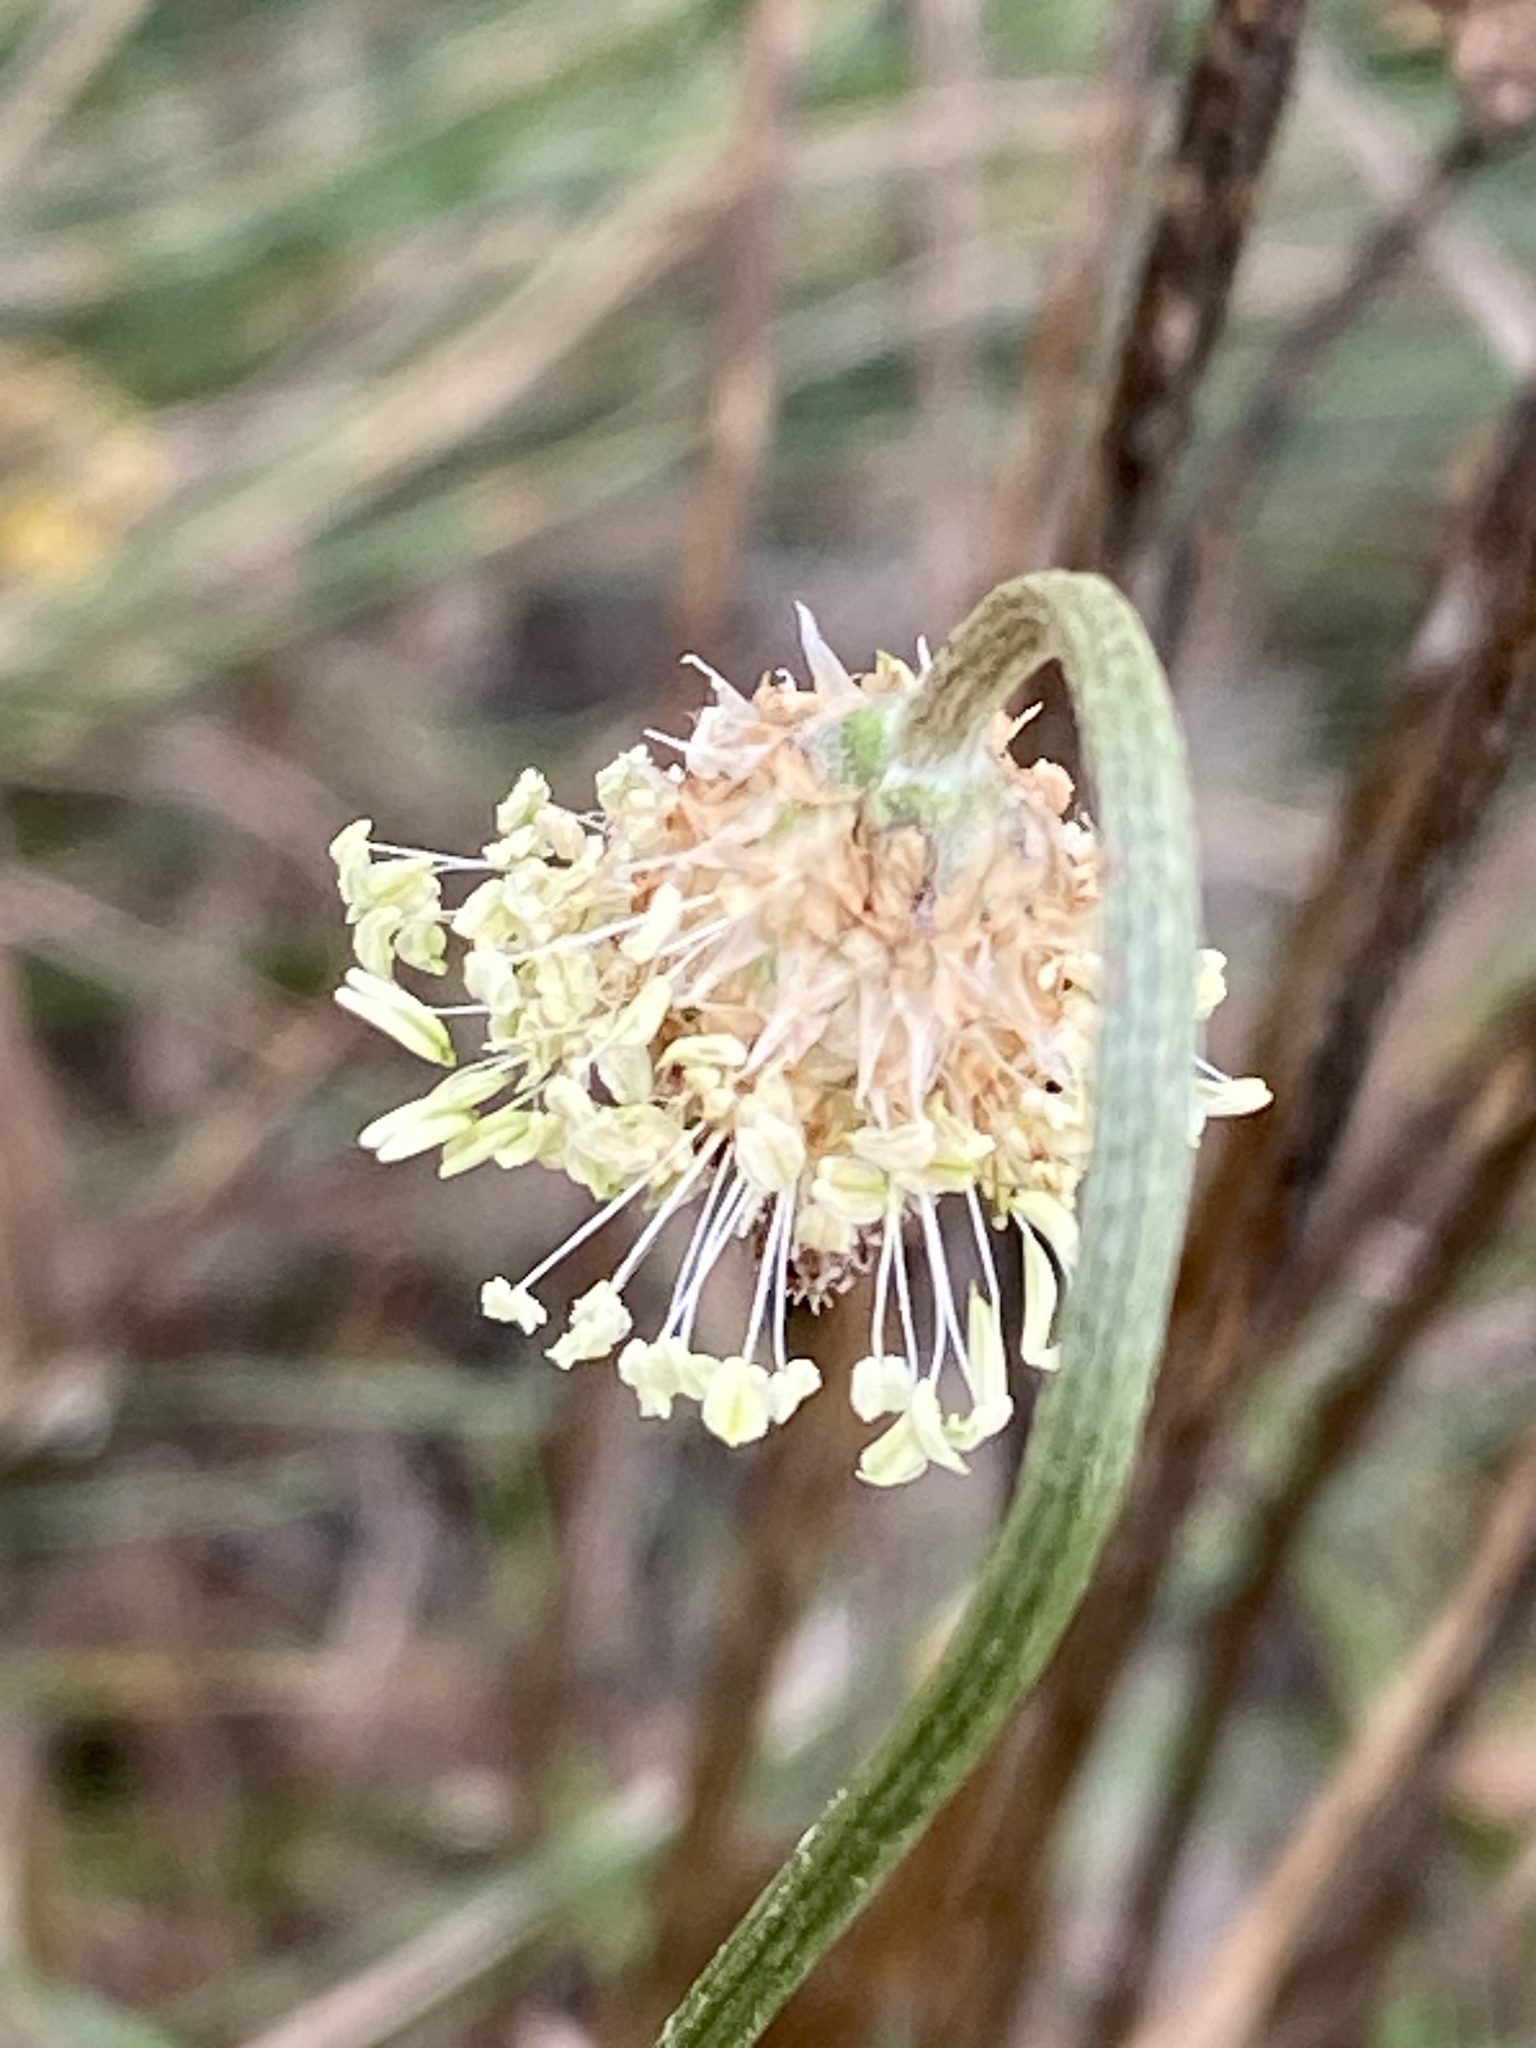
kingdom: Plantae
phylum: Tracheophyta
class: Magnoliopsida
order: Lamiales
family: Plantaginaceae
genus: Plantago
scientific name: Plantago lanceolata
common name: Ribwort plantain
